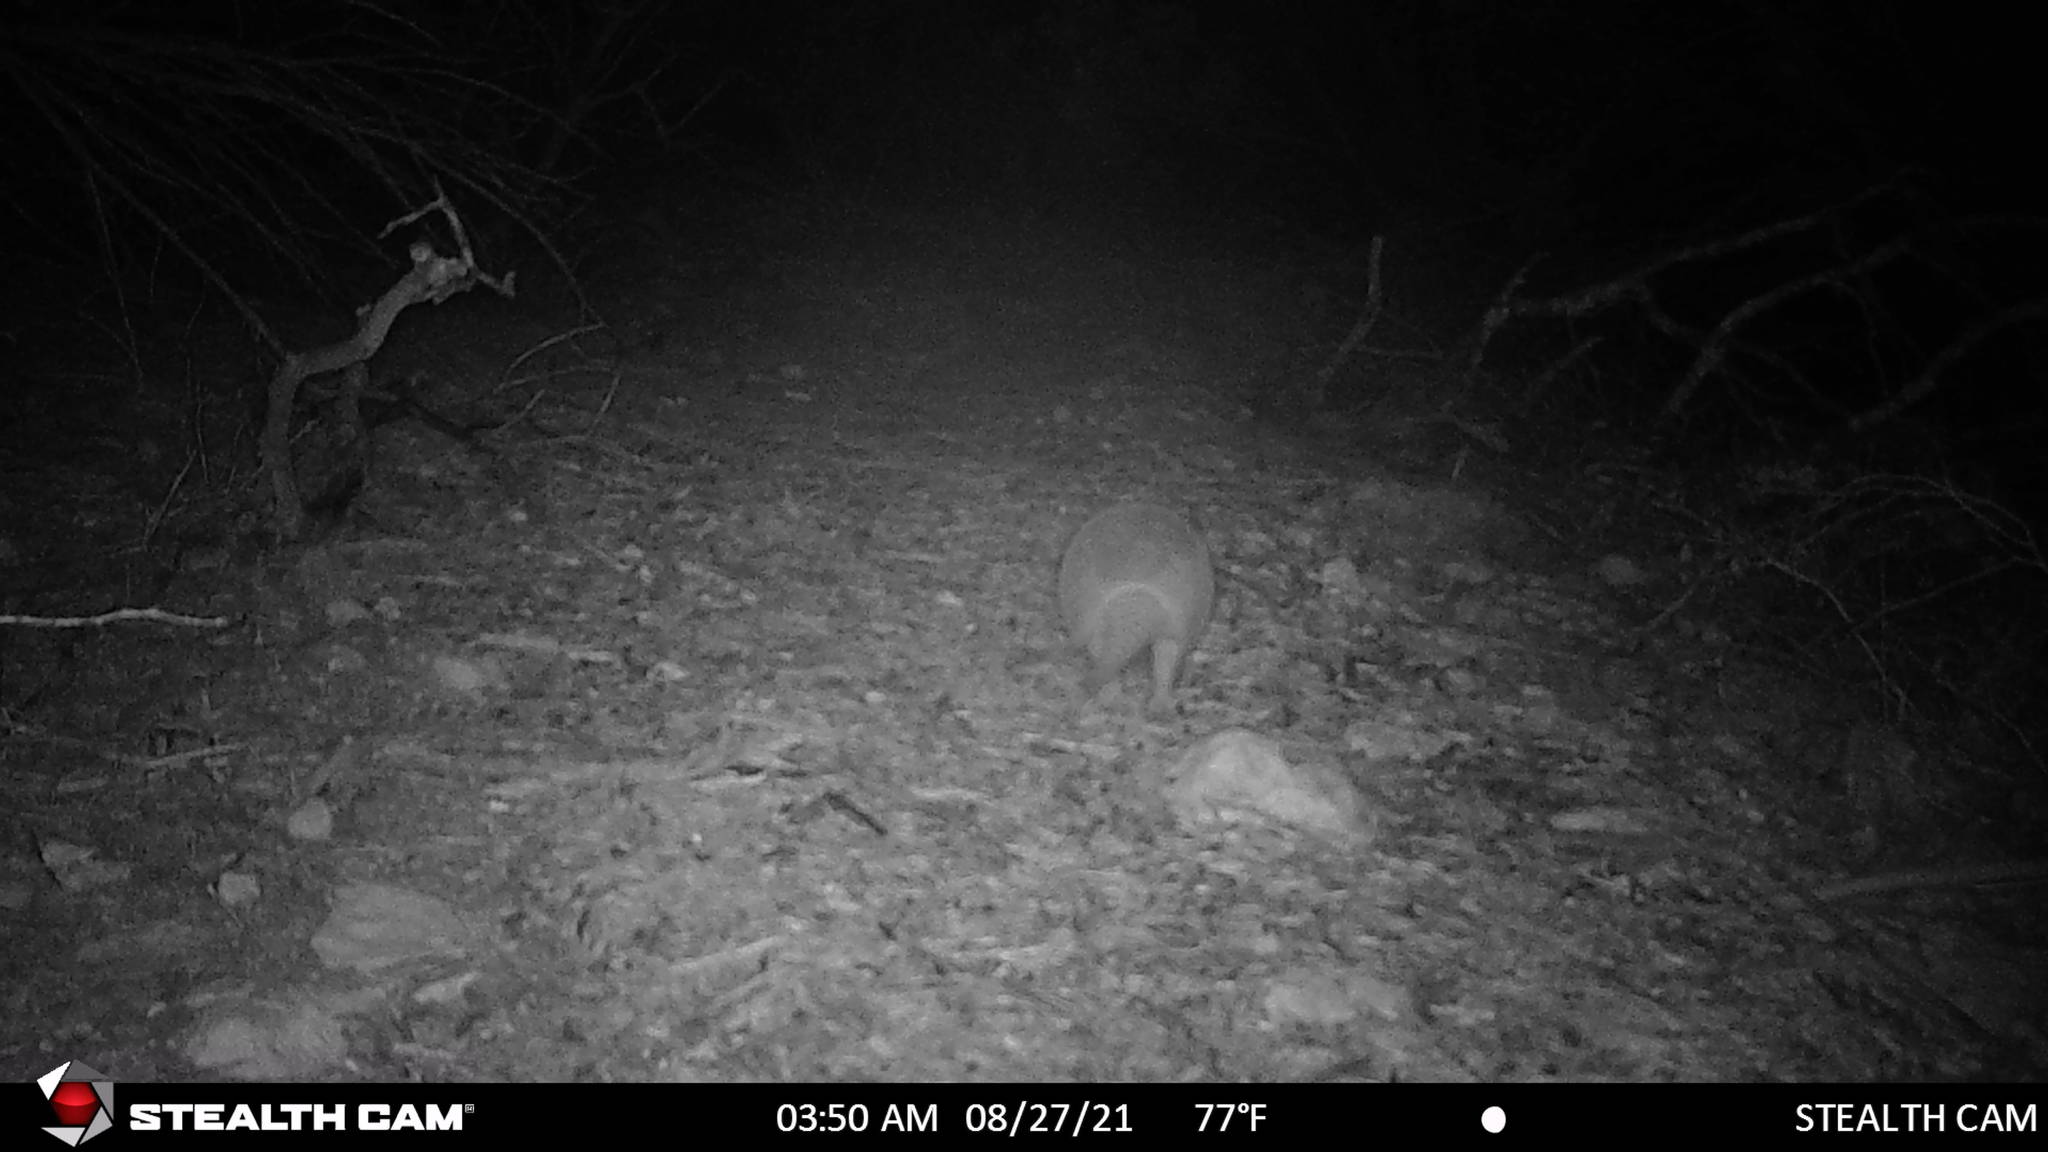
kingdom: Animalia
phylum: Chordata
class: Mammalia
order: Cingulata
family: Dasypodidae
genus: Dasypus
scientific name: Dasypus novemcinctus
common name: Nine-banded armadillo
